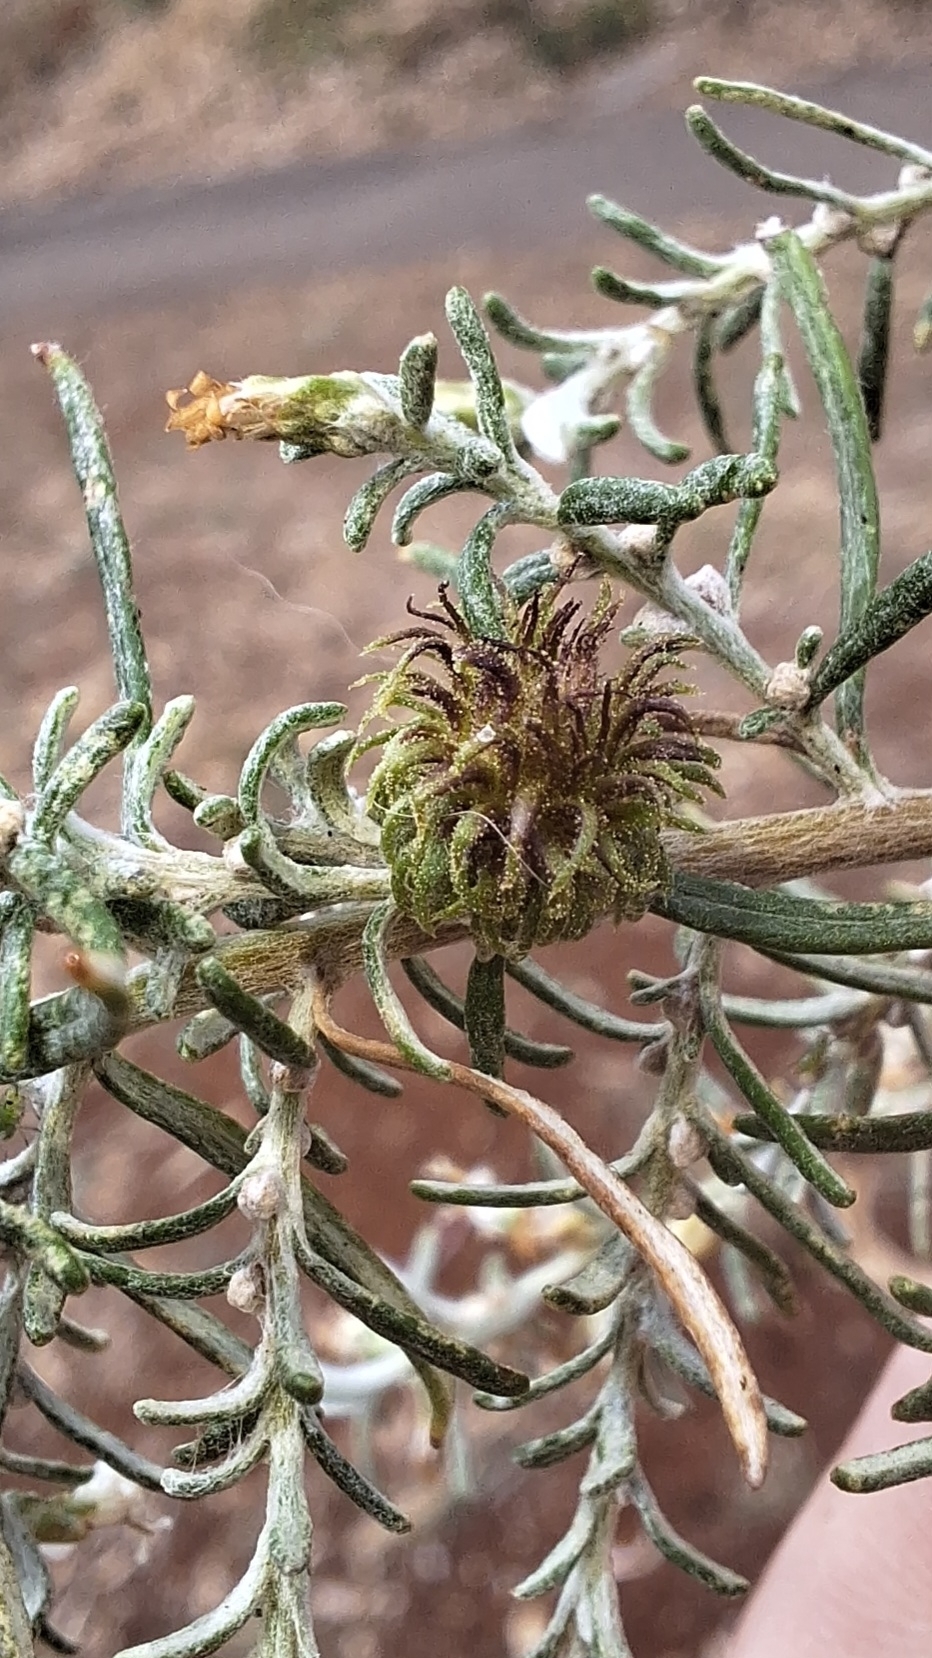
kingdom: Animalia
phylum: Arthropoda
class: Insecta
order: Diptera
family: Cecidomyiidae
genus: Trigonomyia
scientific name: Trigonomyia ananas
